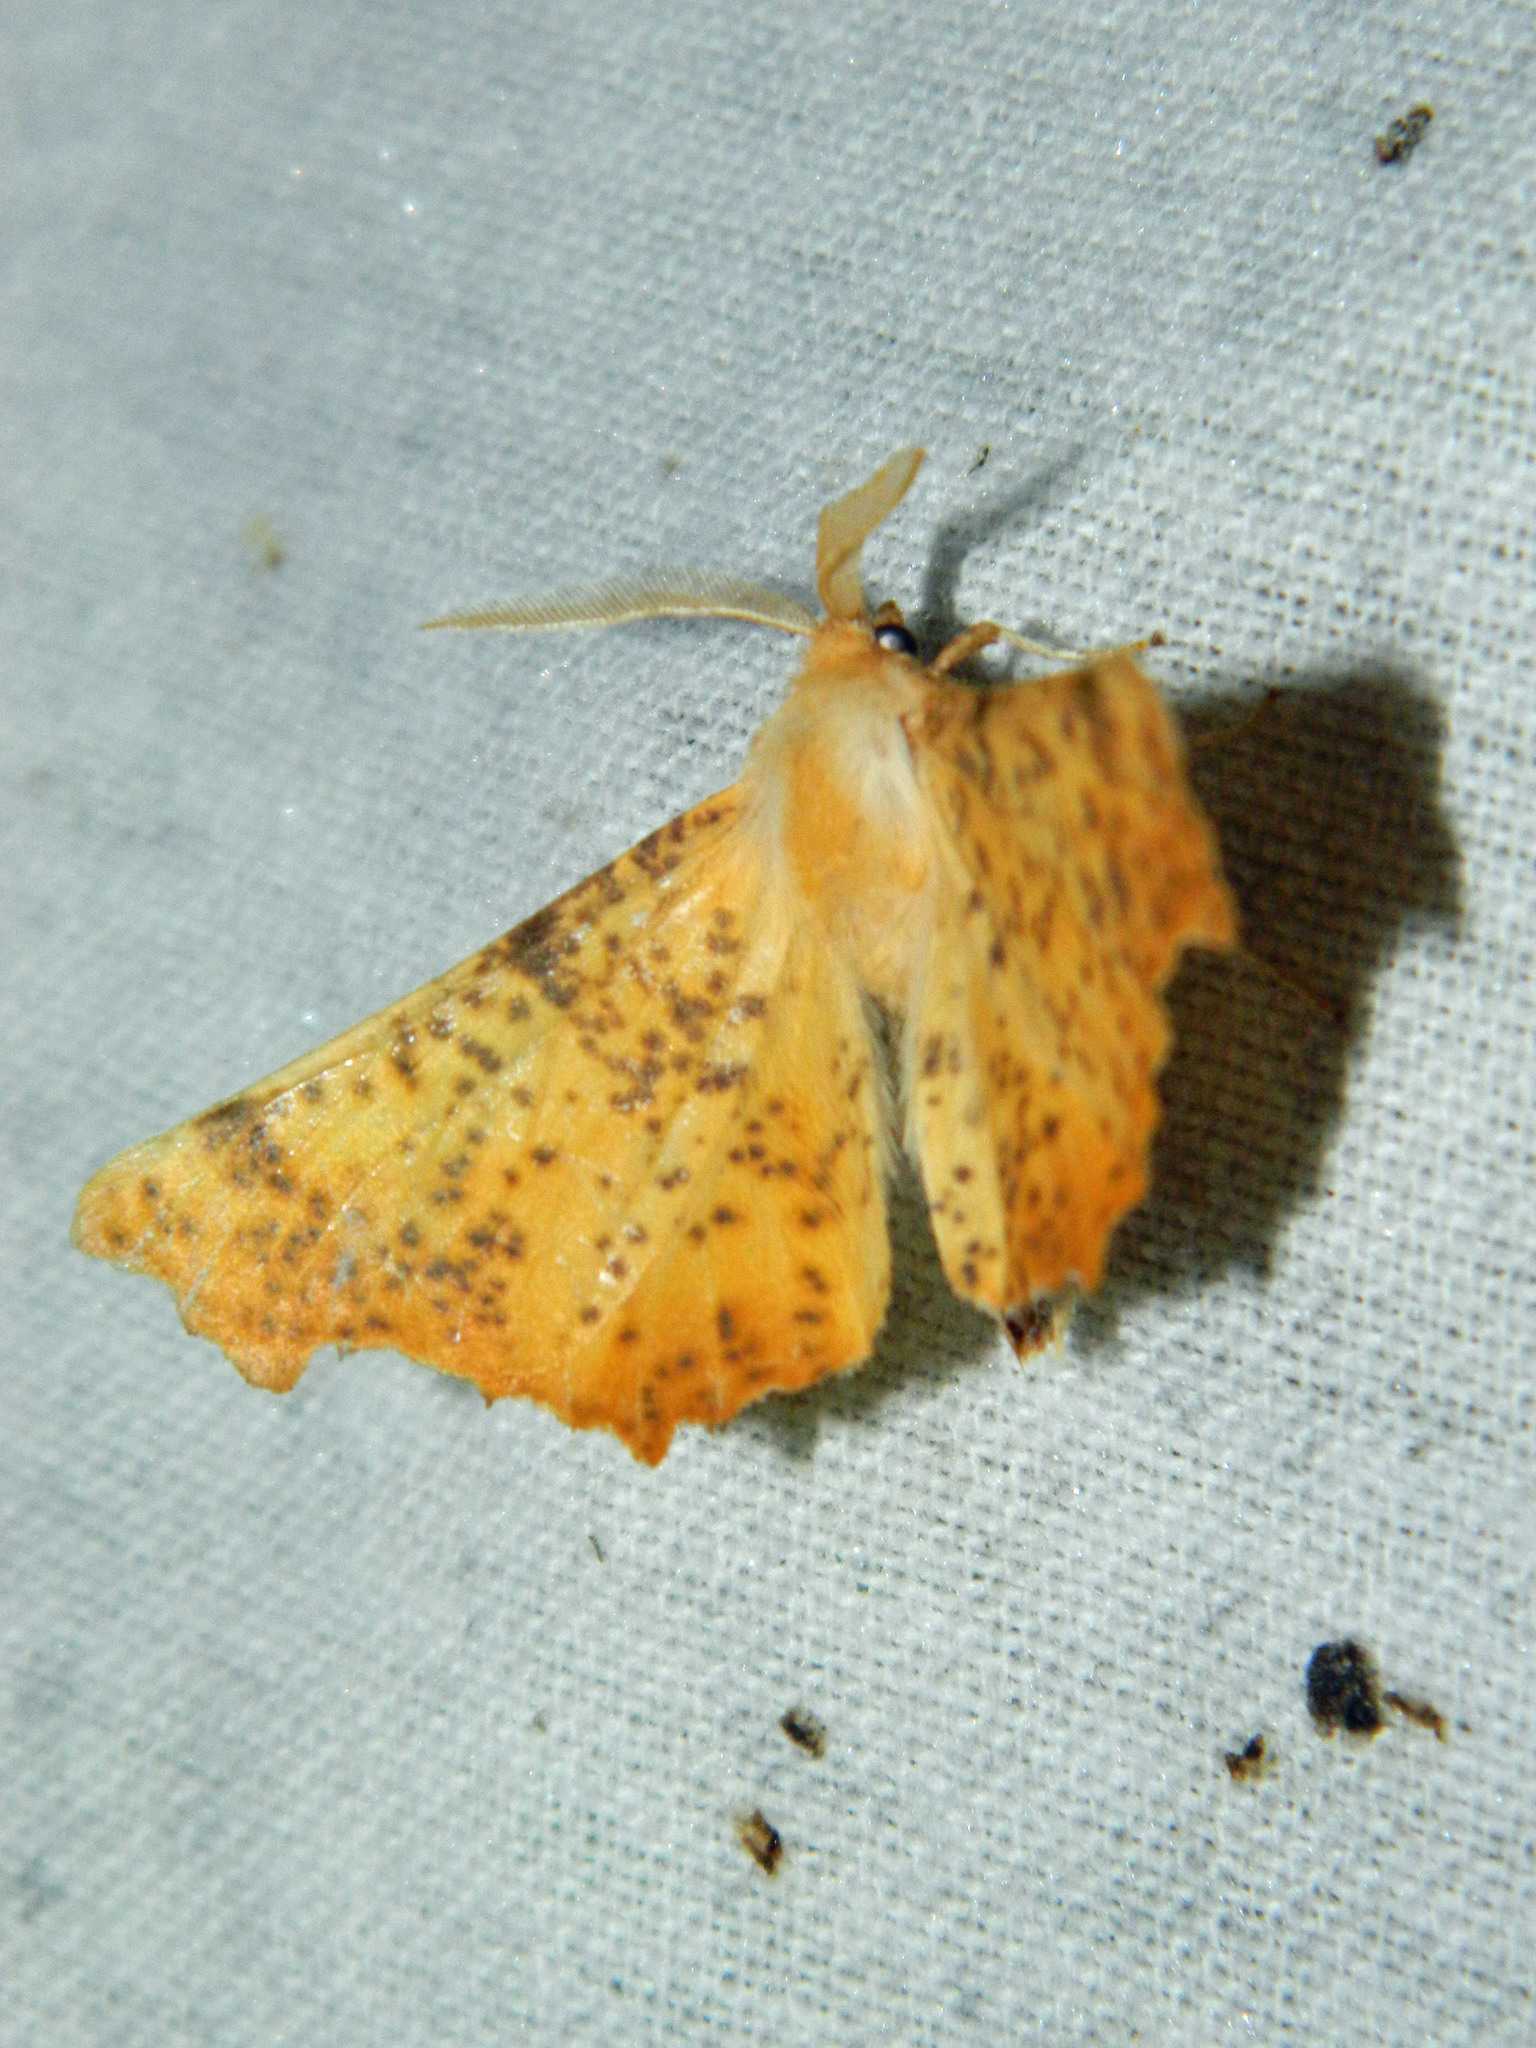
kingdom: Animalia
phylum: Arthropoda
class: Insecta
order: Lepidoptera
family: Geometridae
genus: Ennomos
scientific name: Ennomos magnaria
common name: Maple spanworm
